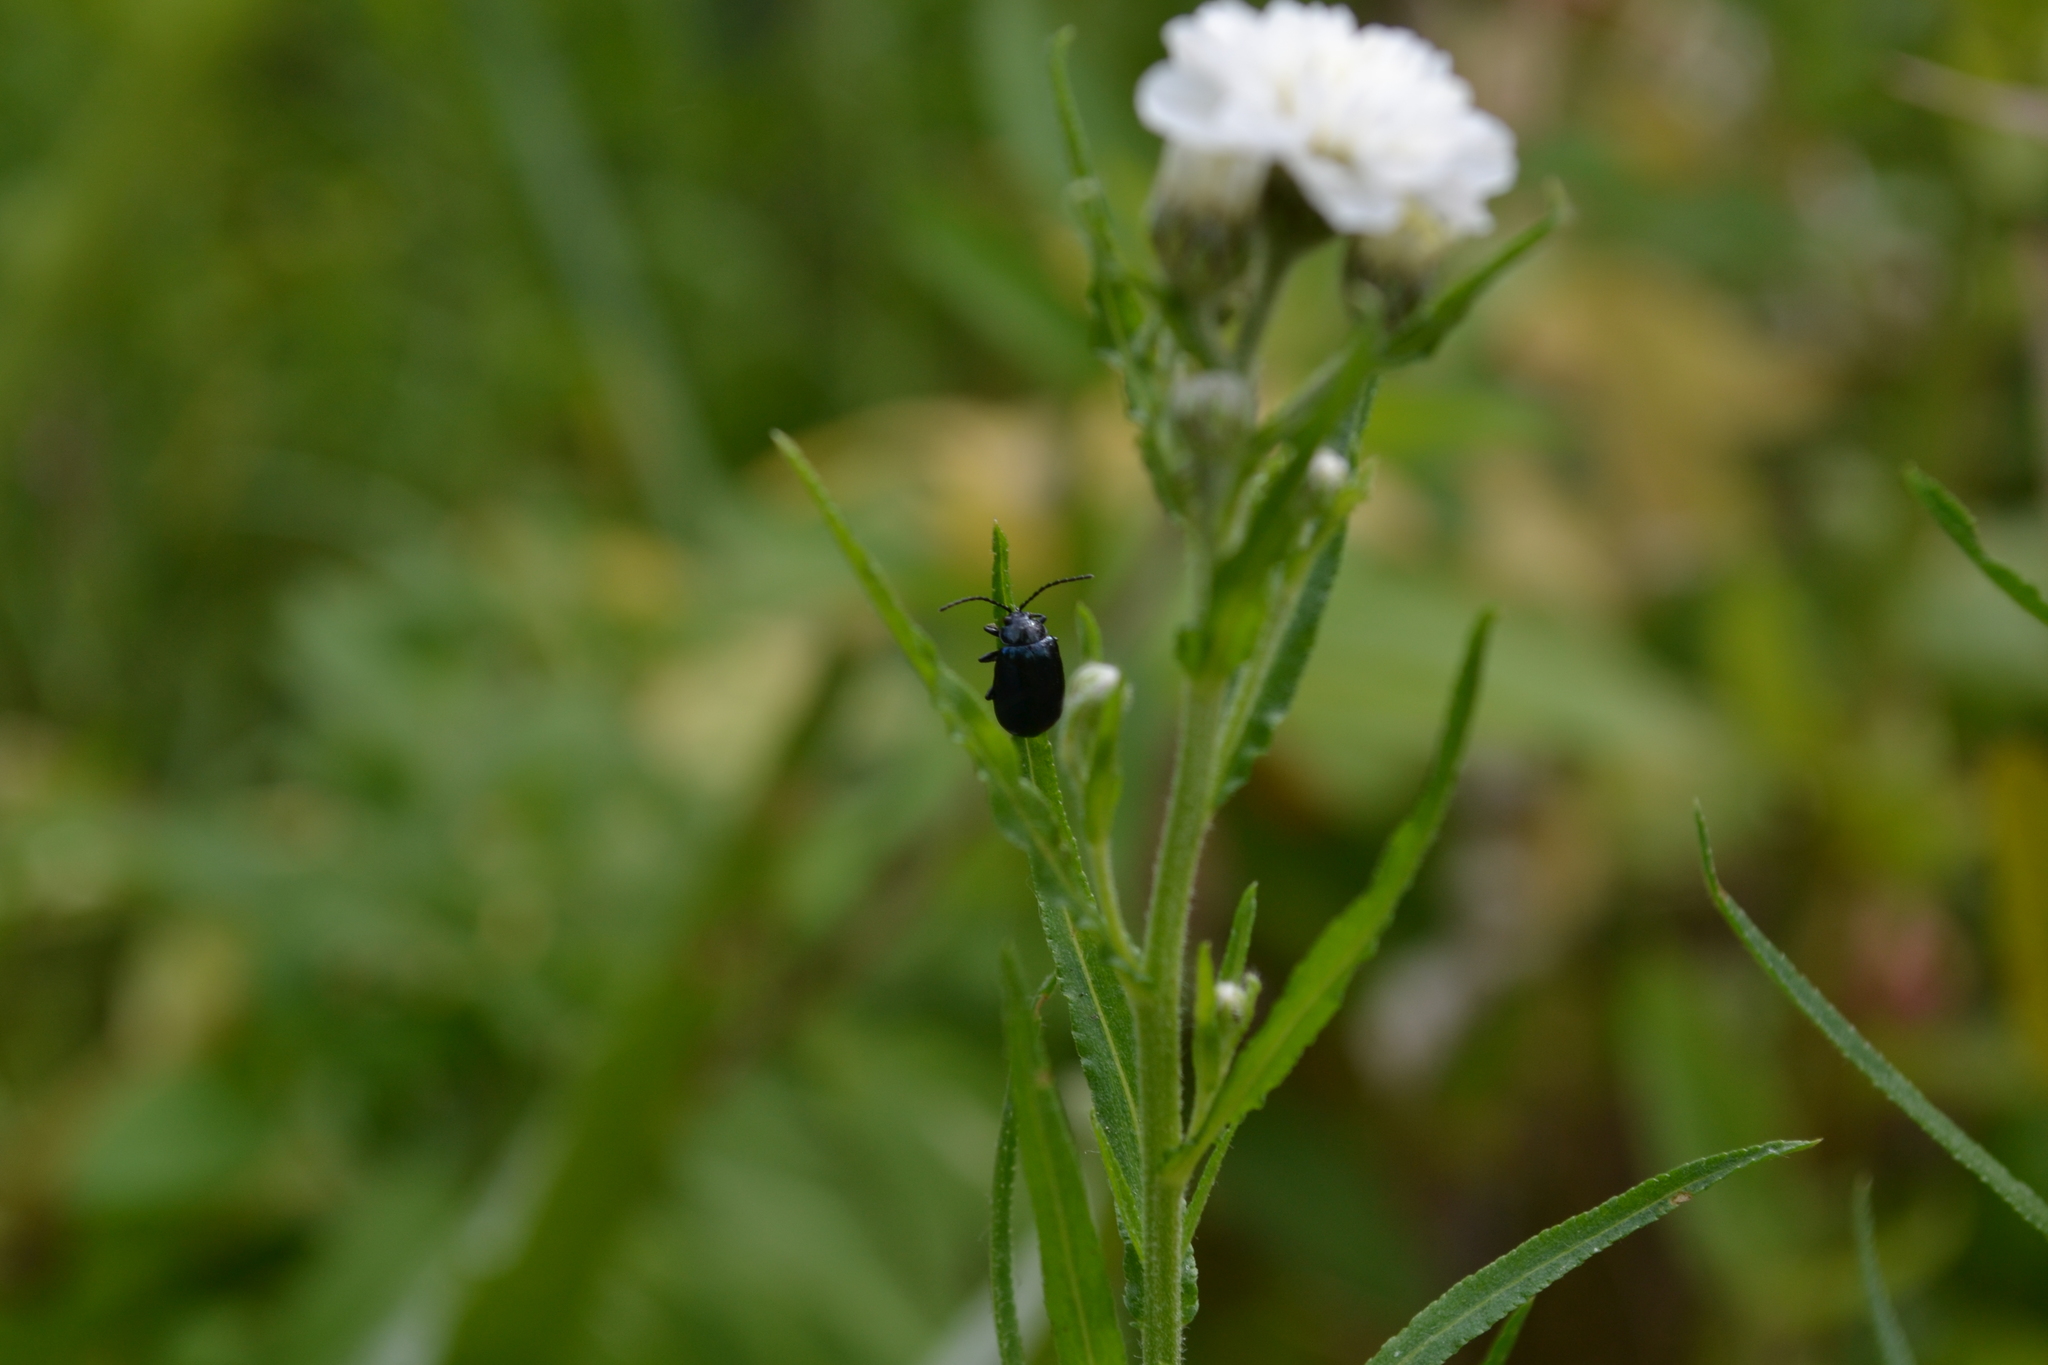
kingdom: Animalia
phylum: Arthropoda
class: Insecta
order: Coleoptera
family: Chrysomelidae
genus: Agelastica
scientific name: Agelastica alni
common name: Alder leaf beetle
